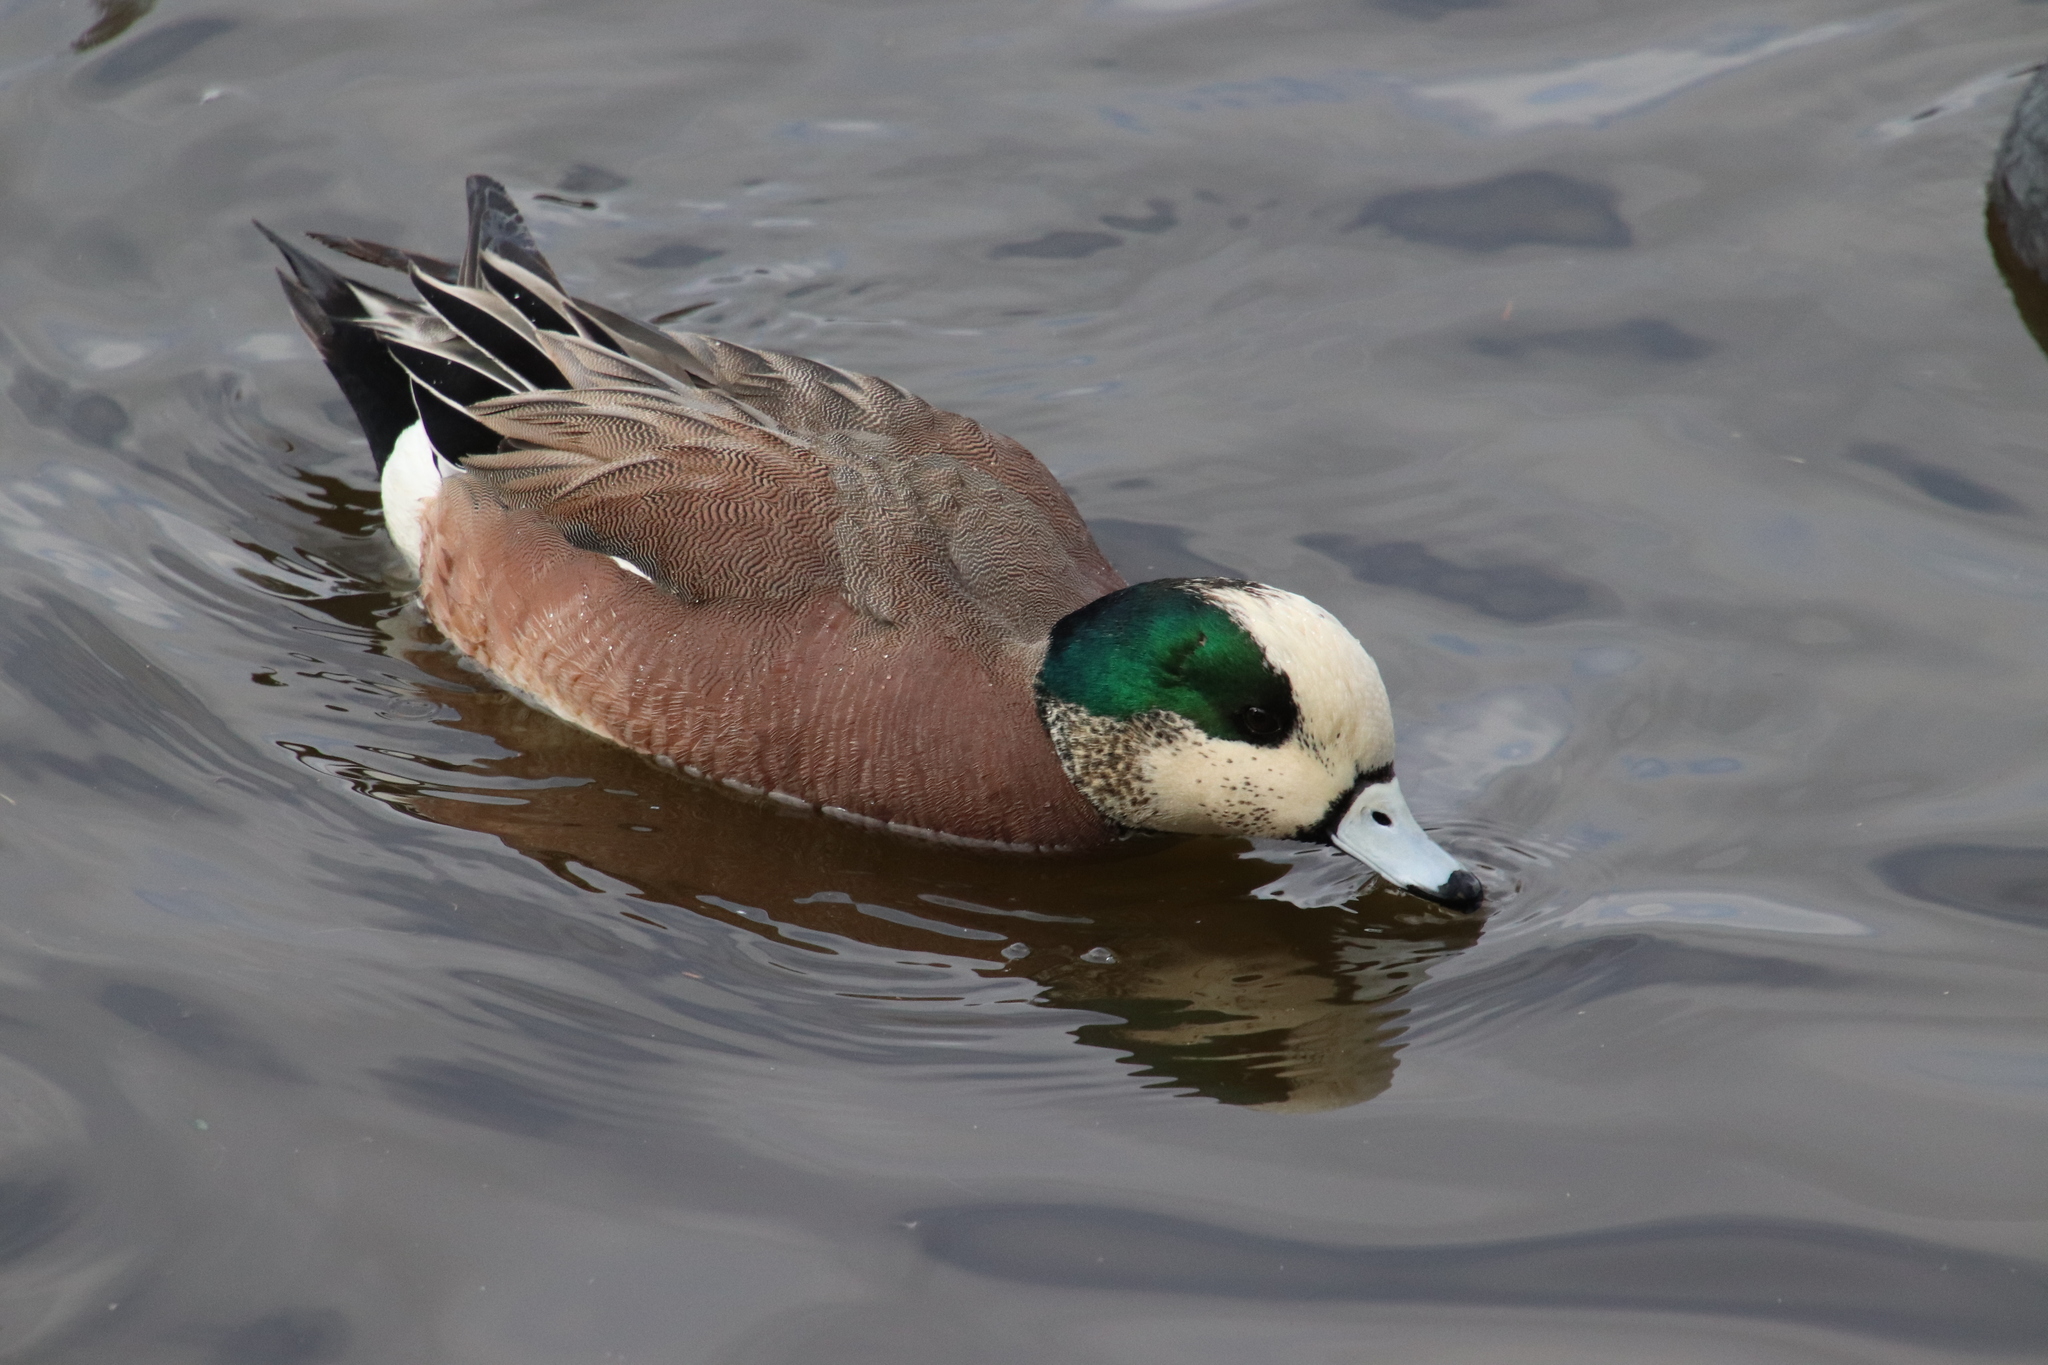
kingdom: Animalia
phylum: Chordata
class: Aves
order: Anseriformes
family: Anatidae
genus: Mareca
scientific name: Mareca americana
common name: American wigeon
